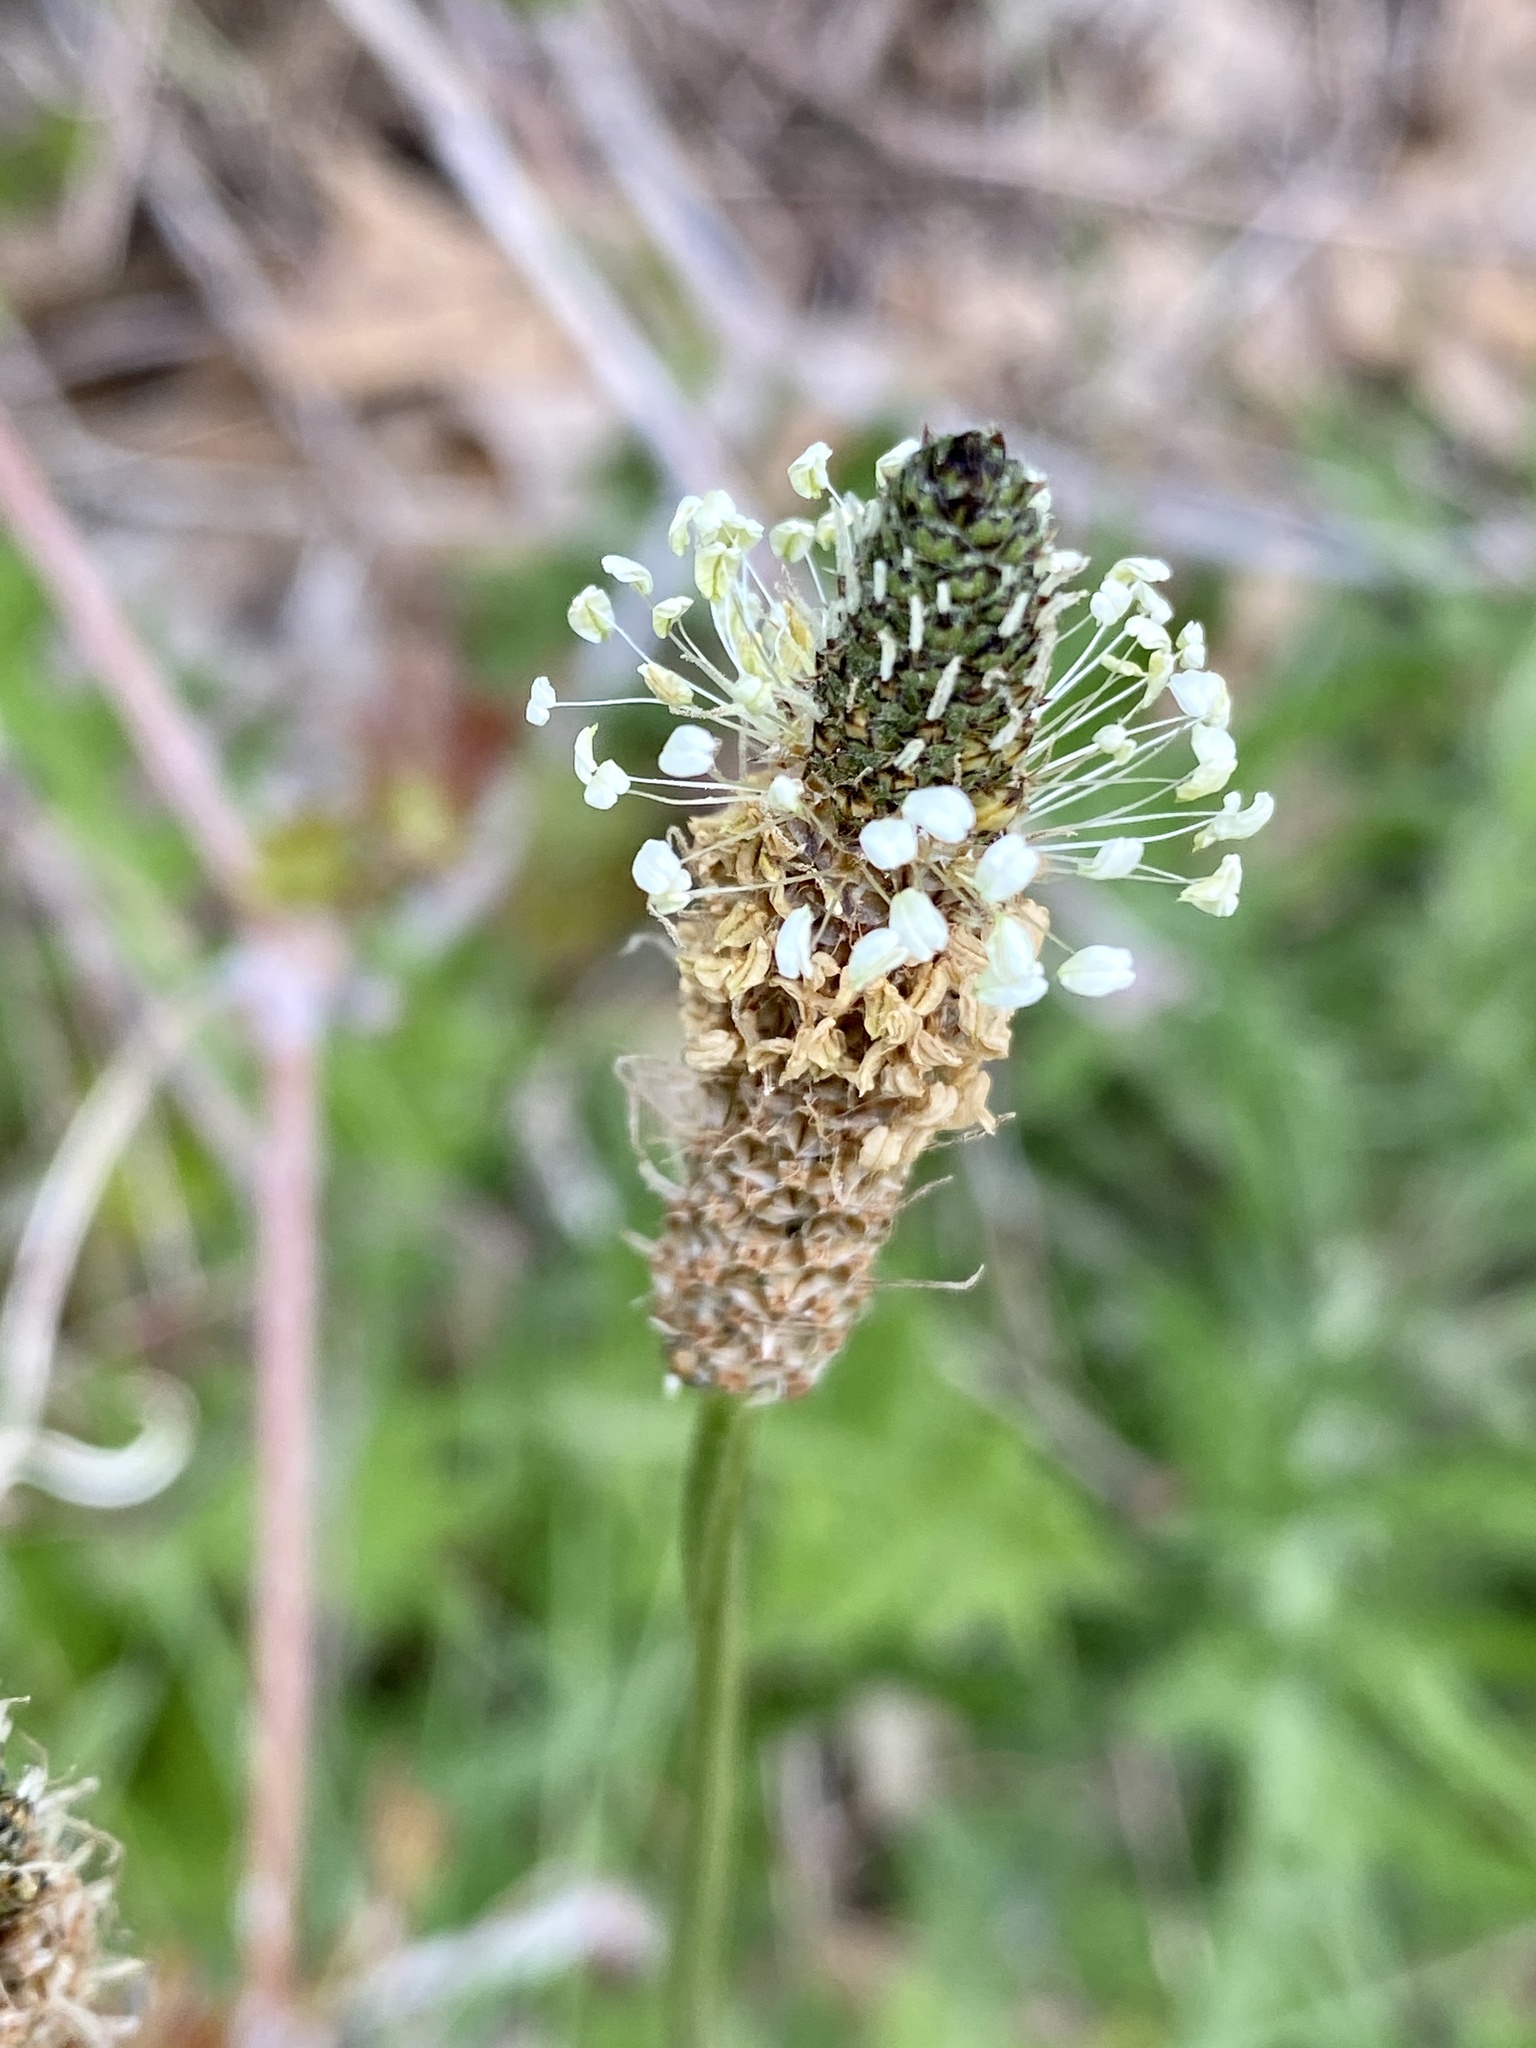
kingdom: Plantae
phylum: Tracheophyta
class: Magnoliopsida
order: Lamiales
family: Plantaginaceae
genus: Plantago
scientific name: Plantago lanceolata
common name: Ribwort plantain
